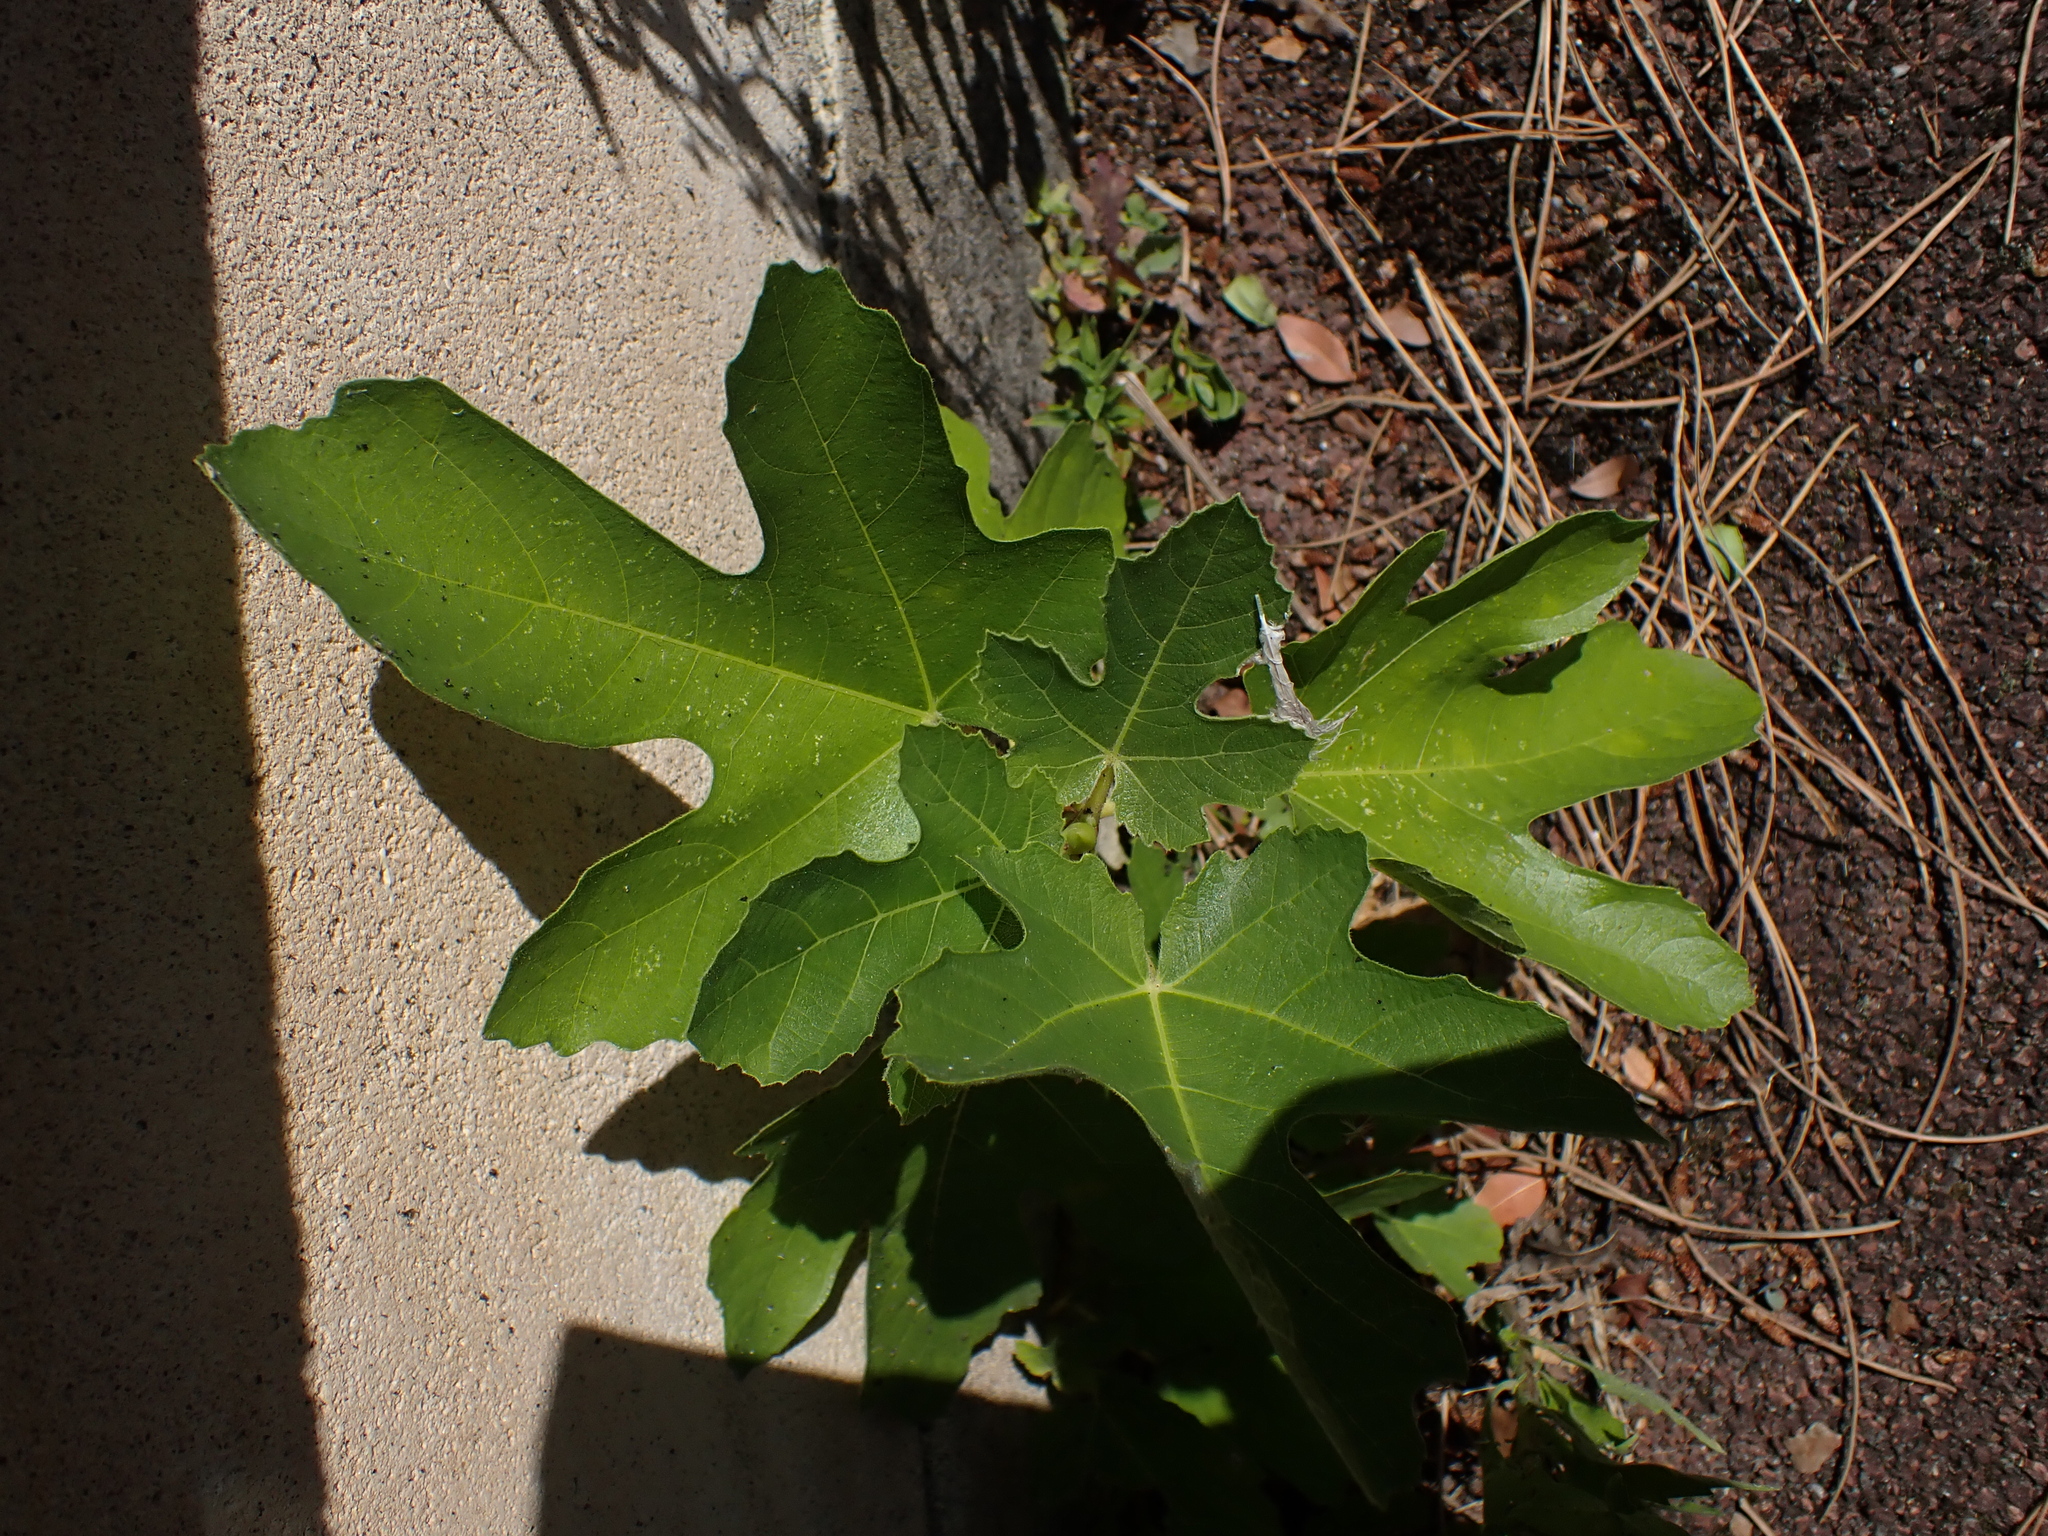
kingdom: Plantae
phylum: Tracheophyta
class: Magnoliopsida
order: Rosales
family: Moraceae
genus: Ficus
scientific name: Ficus carica
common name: Fig
